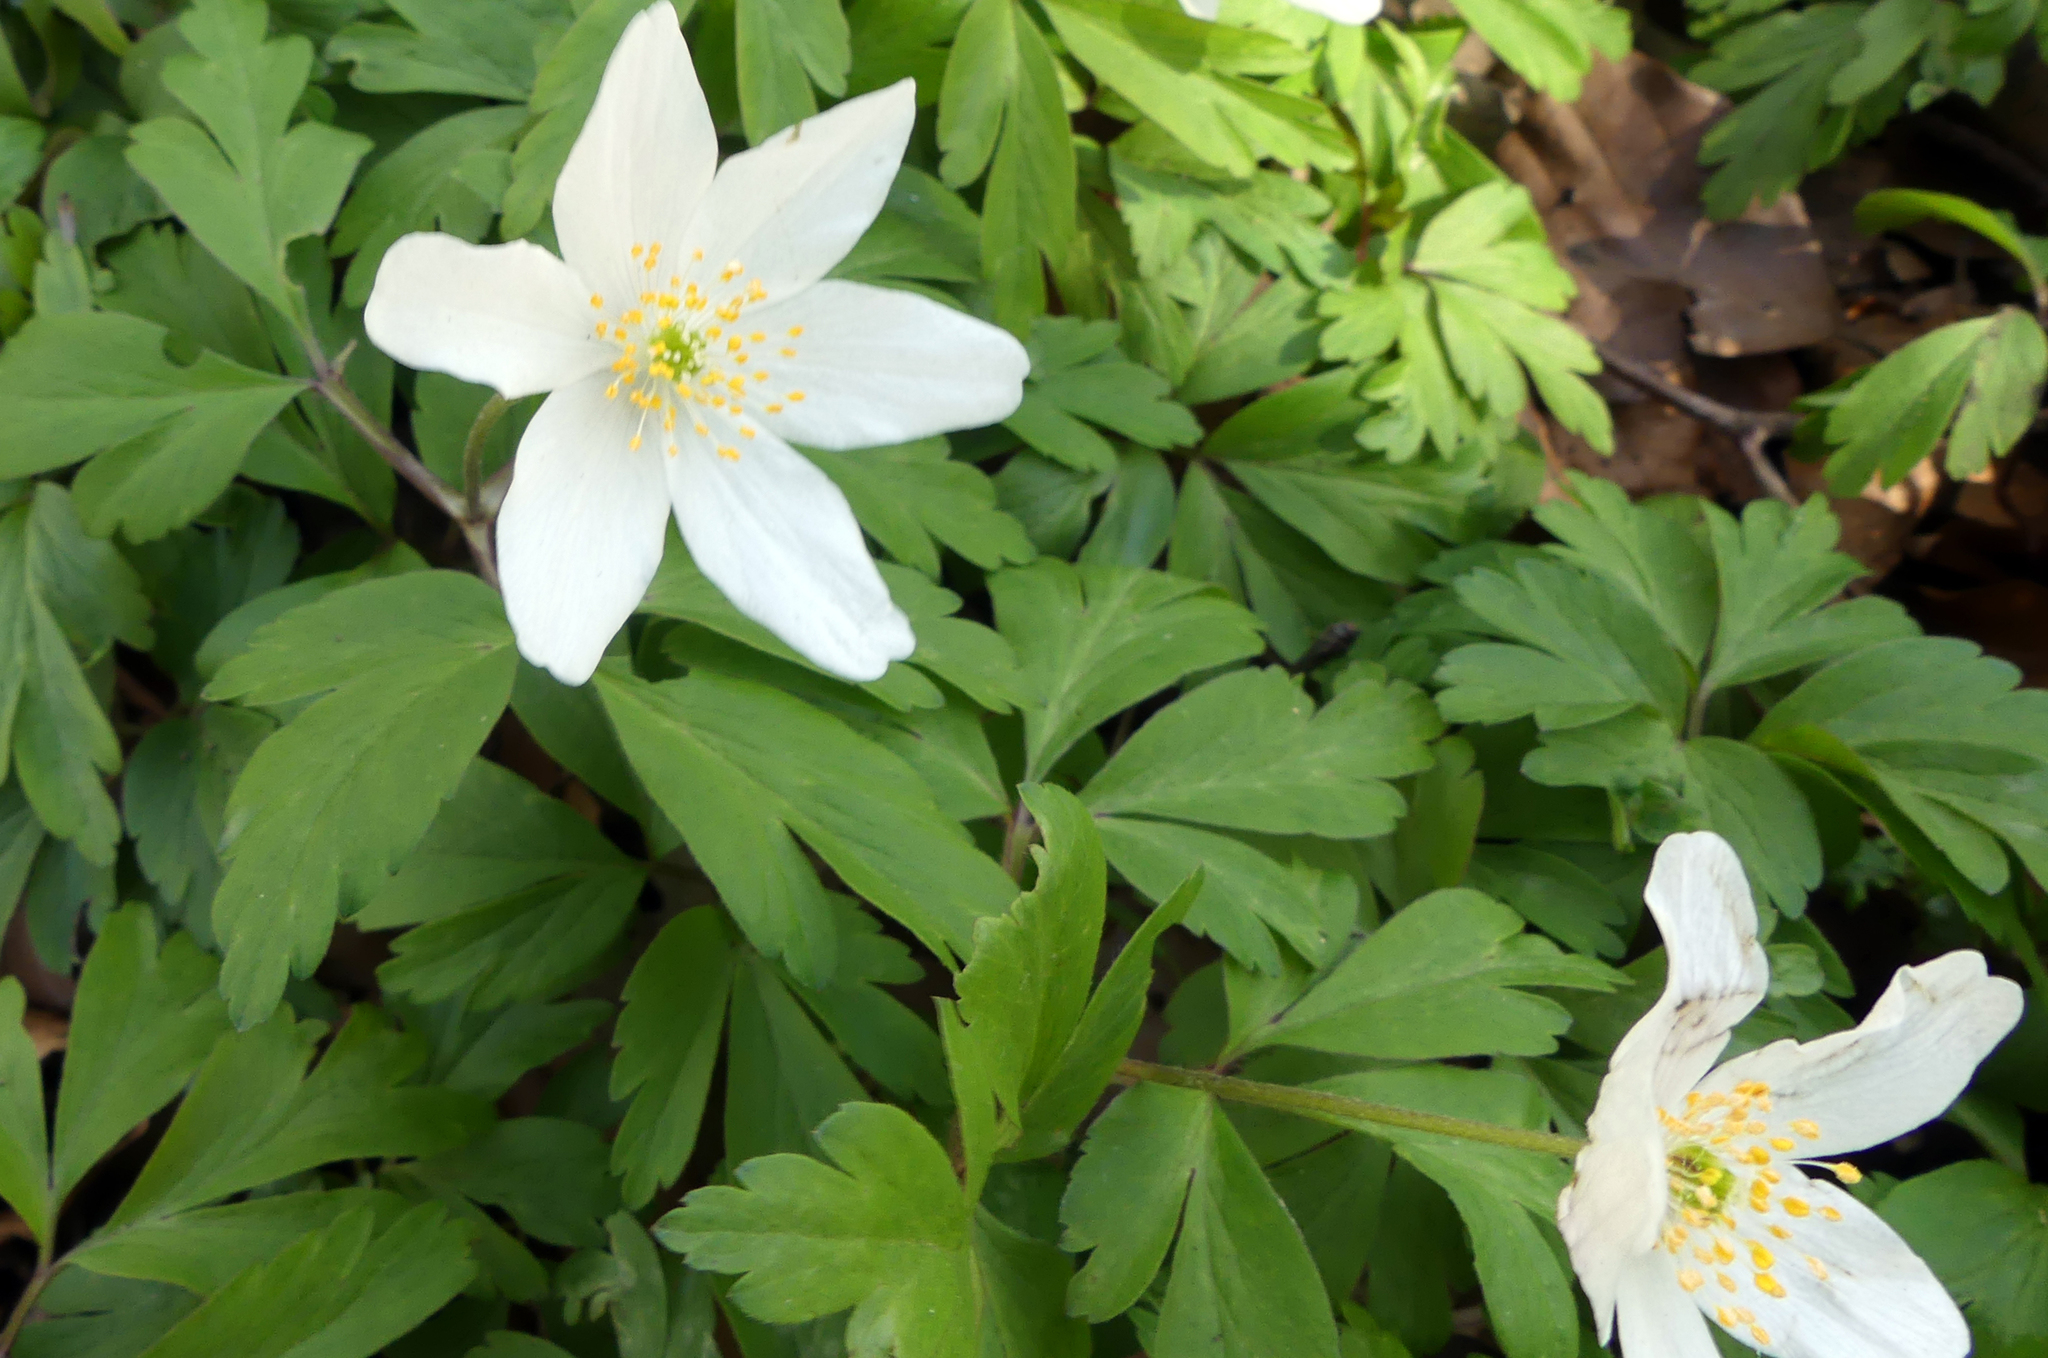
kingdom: Plantae
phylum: Tracheophyta
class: Magnoliopsida
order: Ranunculales
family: Ranunculaceae
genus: Anemone
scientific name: Anemone nemorosa
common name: Wood anemone
